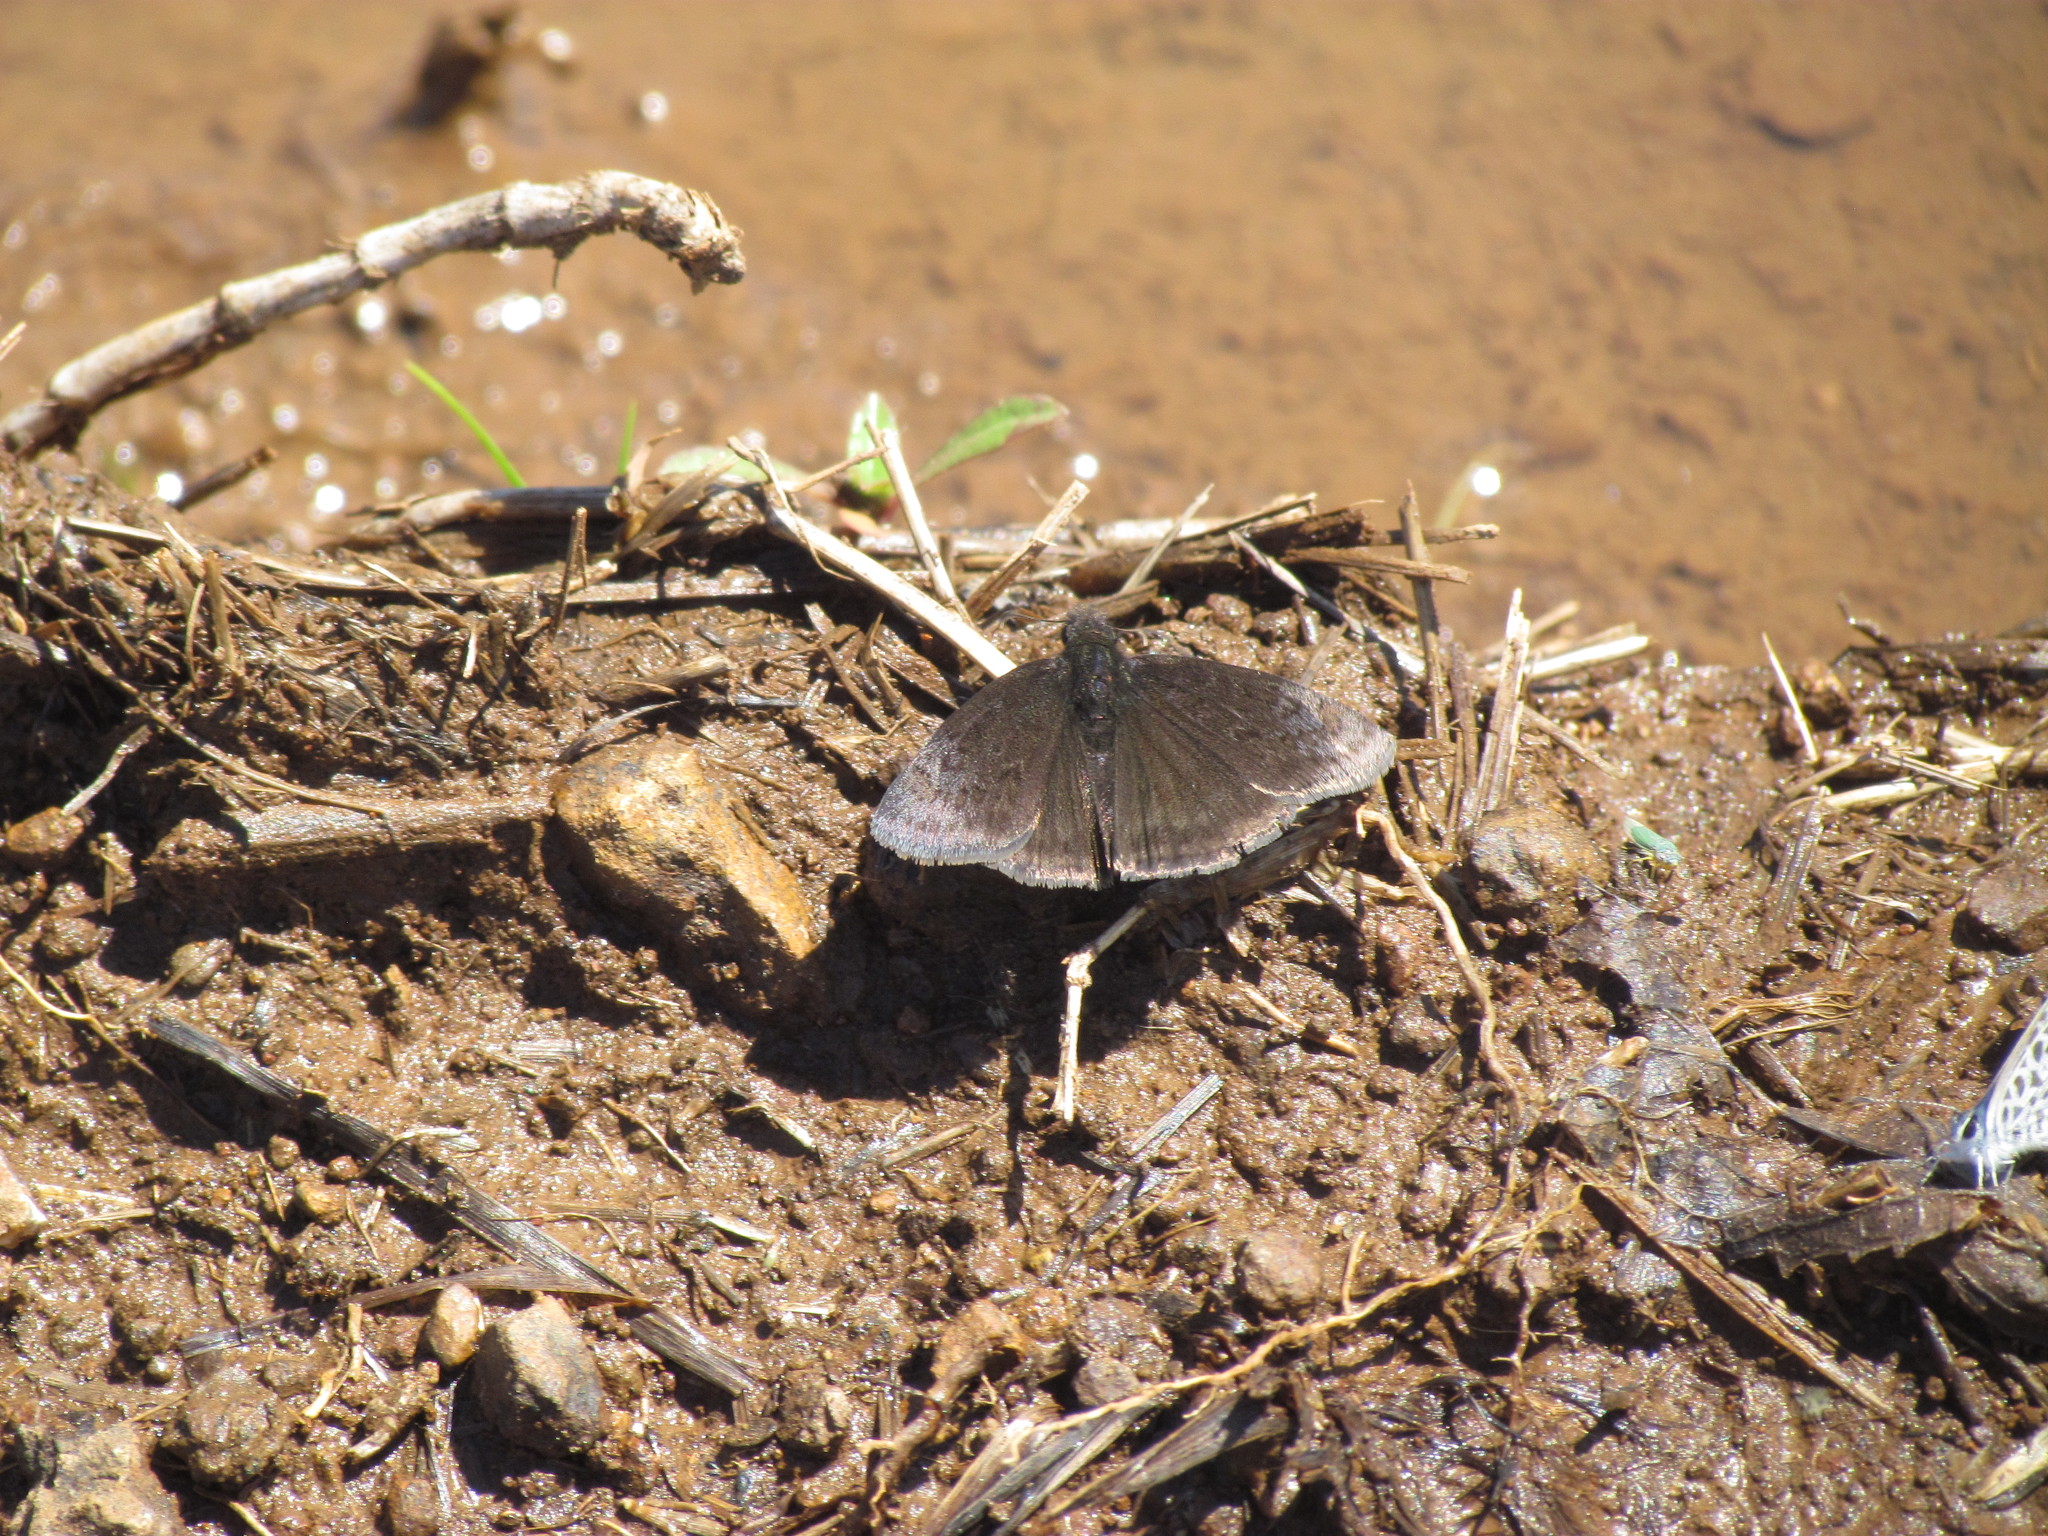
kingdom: Animalia
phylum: Arthropoda
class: Insecta
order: Lepidoptera
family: Hesperiidae
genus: Gesta
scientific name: Gesta austerus
